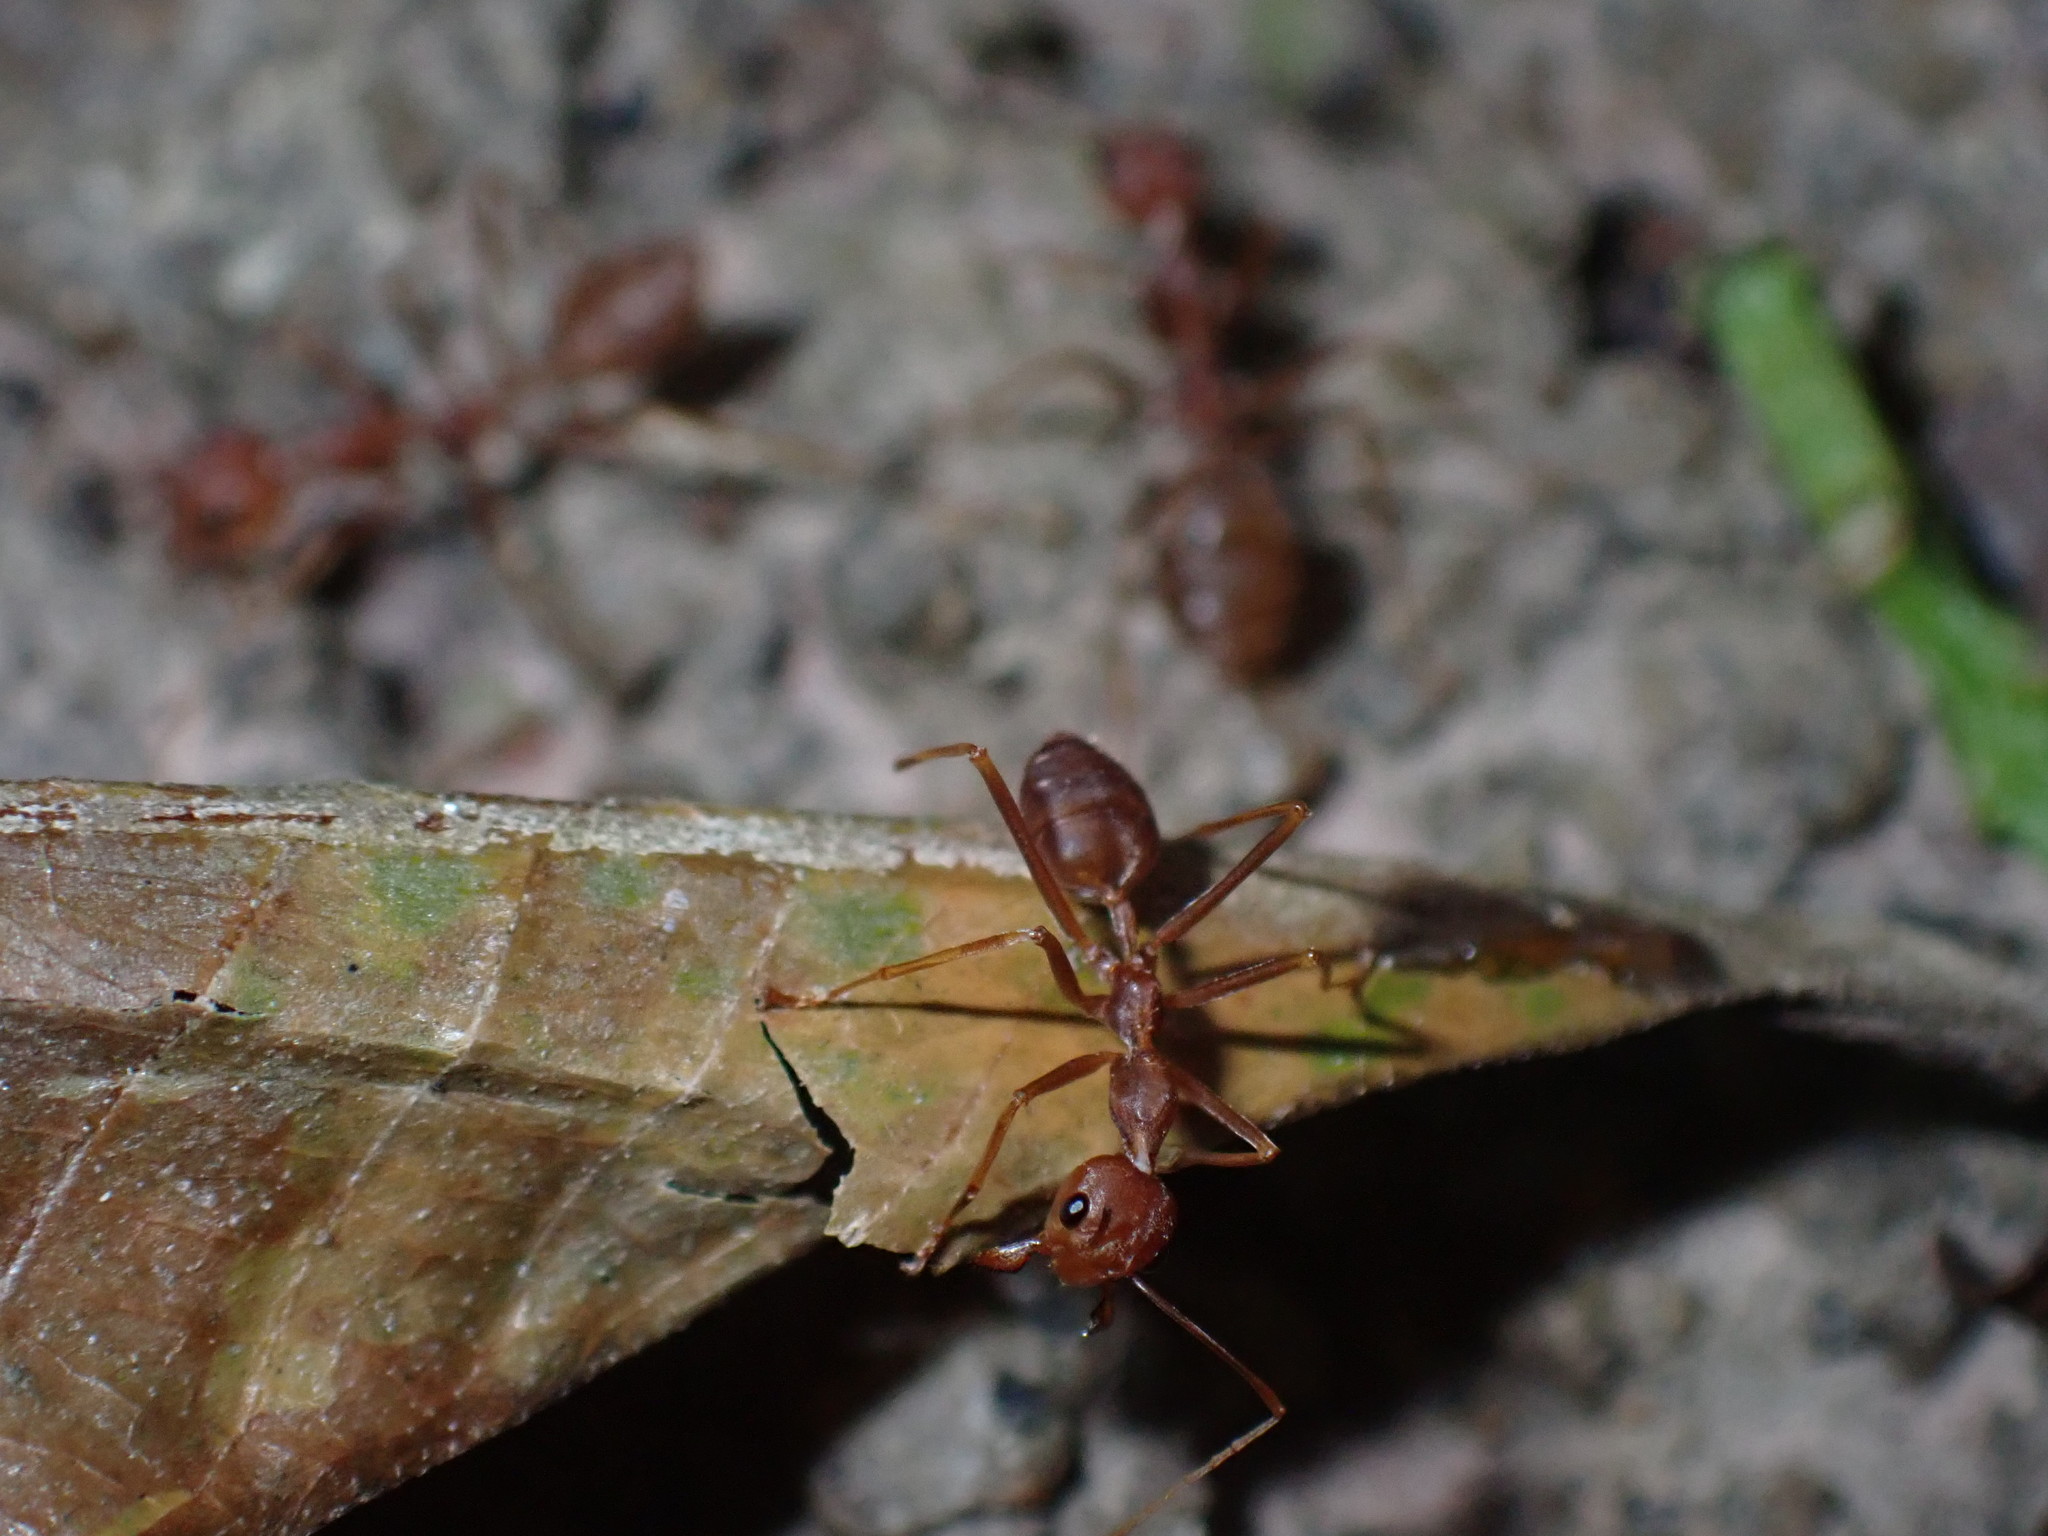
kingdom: Animalia
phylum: Arthropoda
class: Insecta
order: Hymenoptera
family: Formicidae
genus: Oecophylla
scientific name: Oecophylla smaragdina
